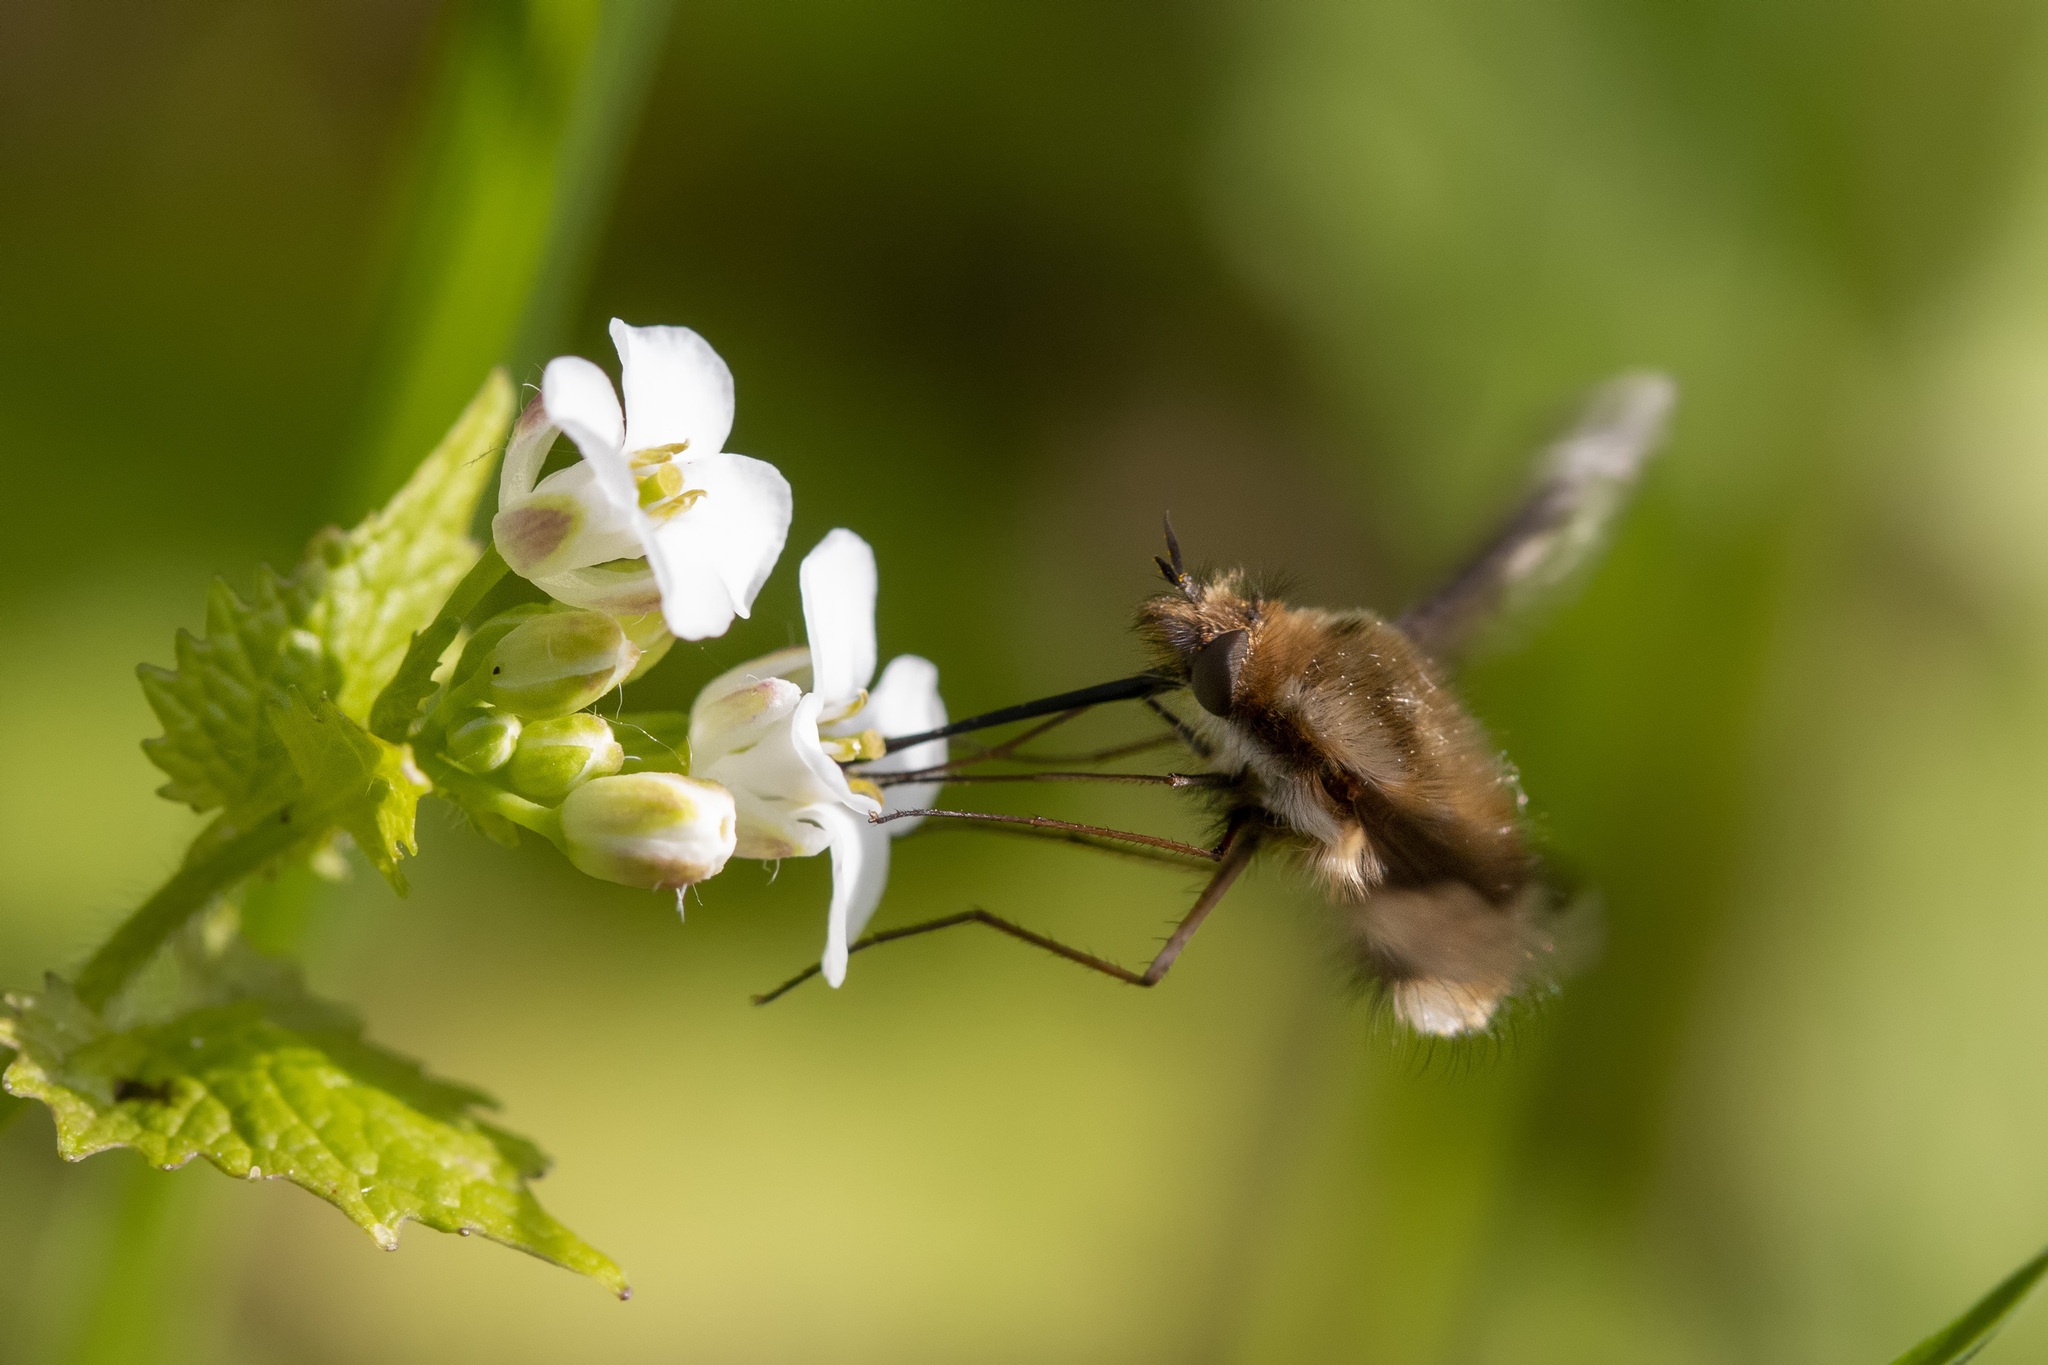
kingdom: Animalia
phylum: Arthropoda
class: Insecta
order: Diptera
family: Bombyliidae
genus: Bombylius
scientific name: Bombylius major
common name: Bee fly
